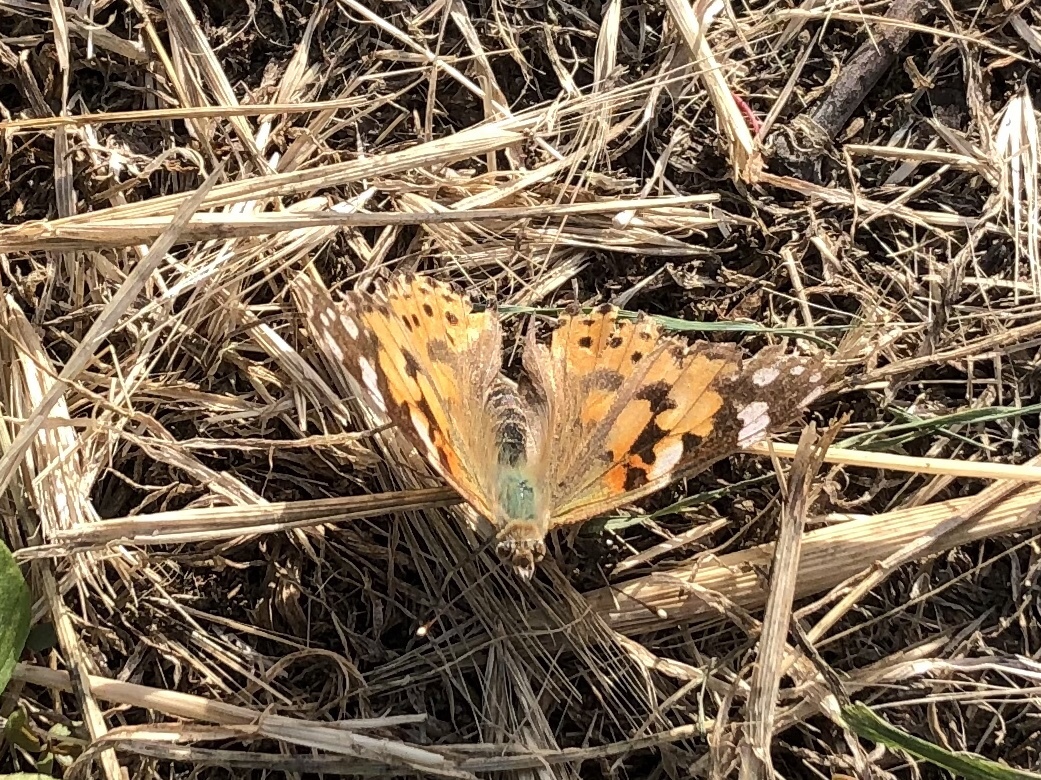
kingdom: Animalia
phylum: Arthropoda
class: Insecta
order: Lepidoptera
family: Nymphalidae
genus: Vanessa
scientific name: Vanessa cardui
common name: Painted lady
